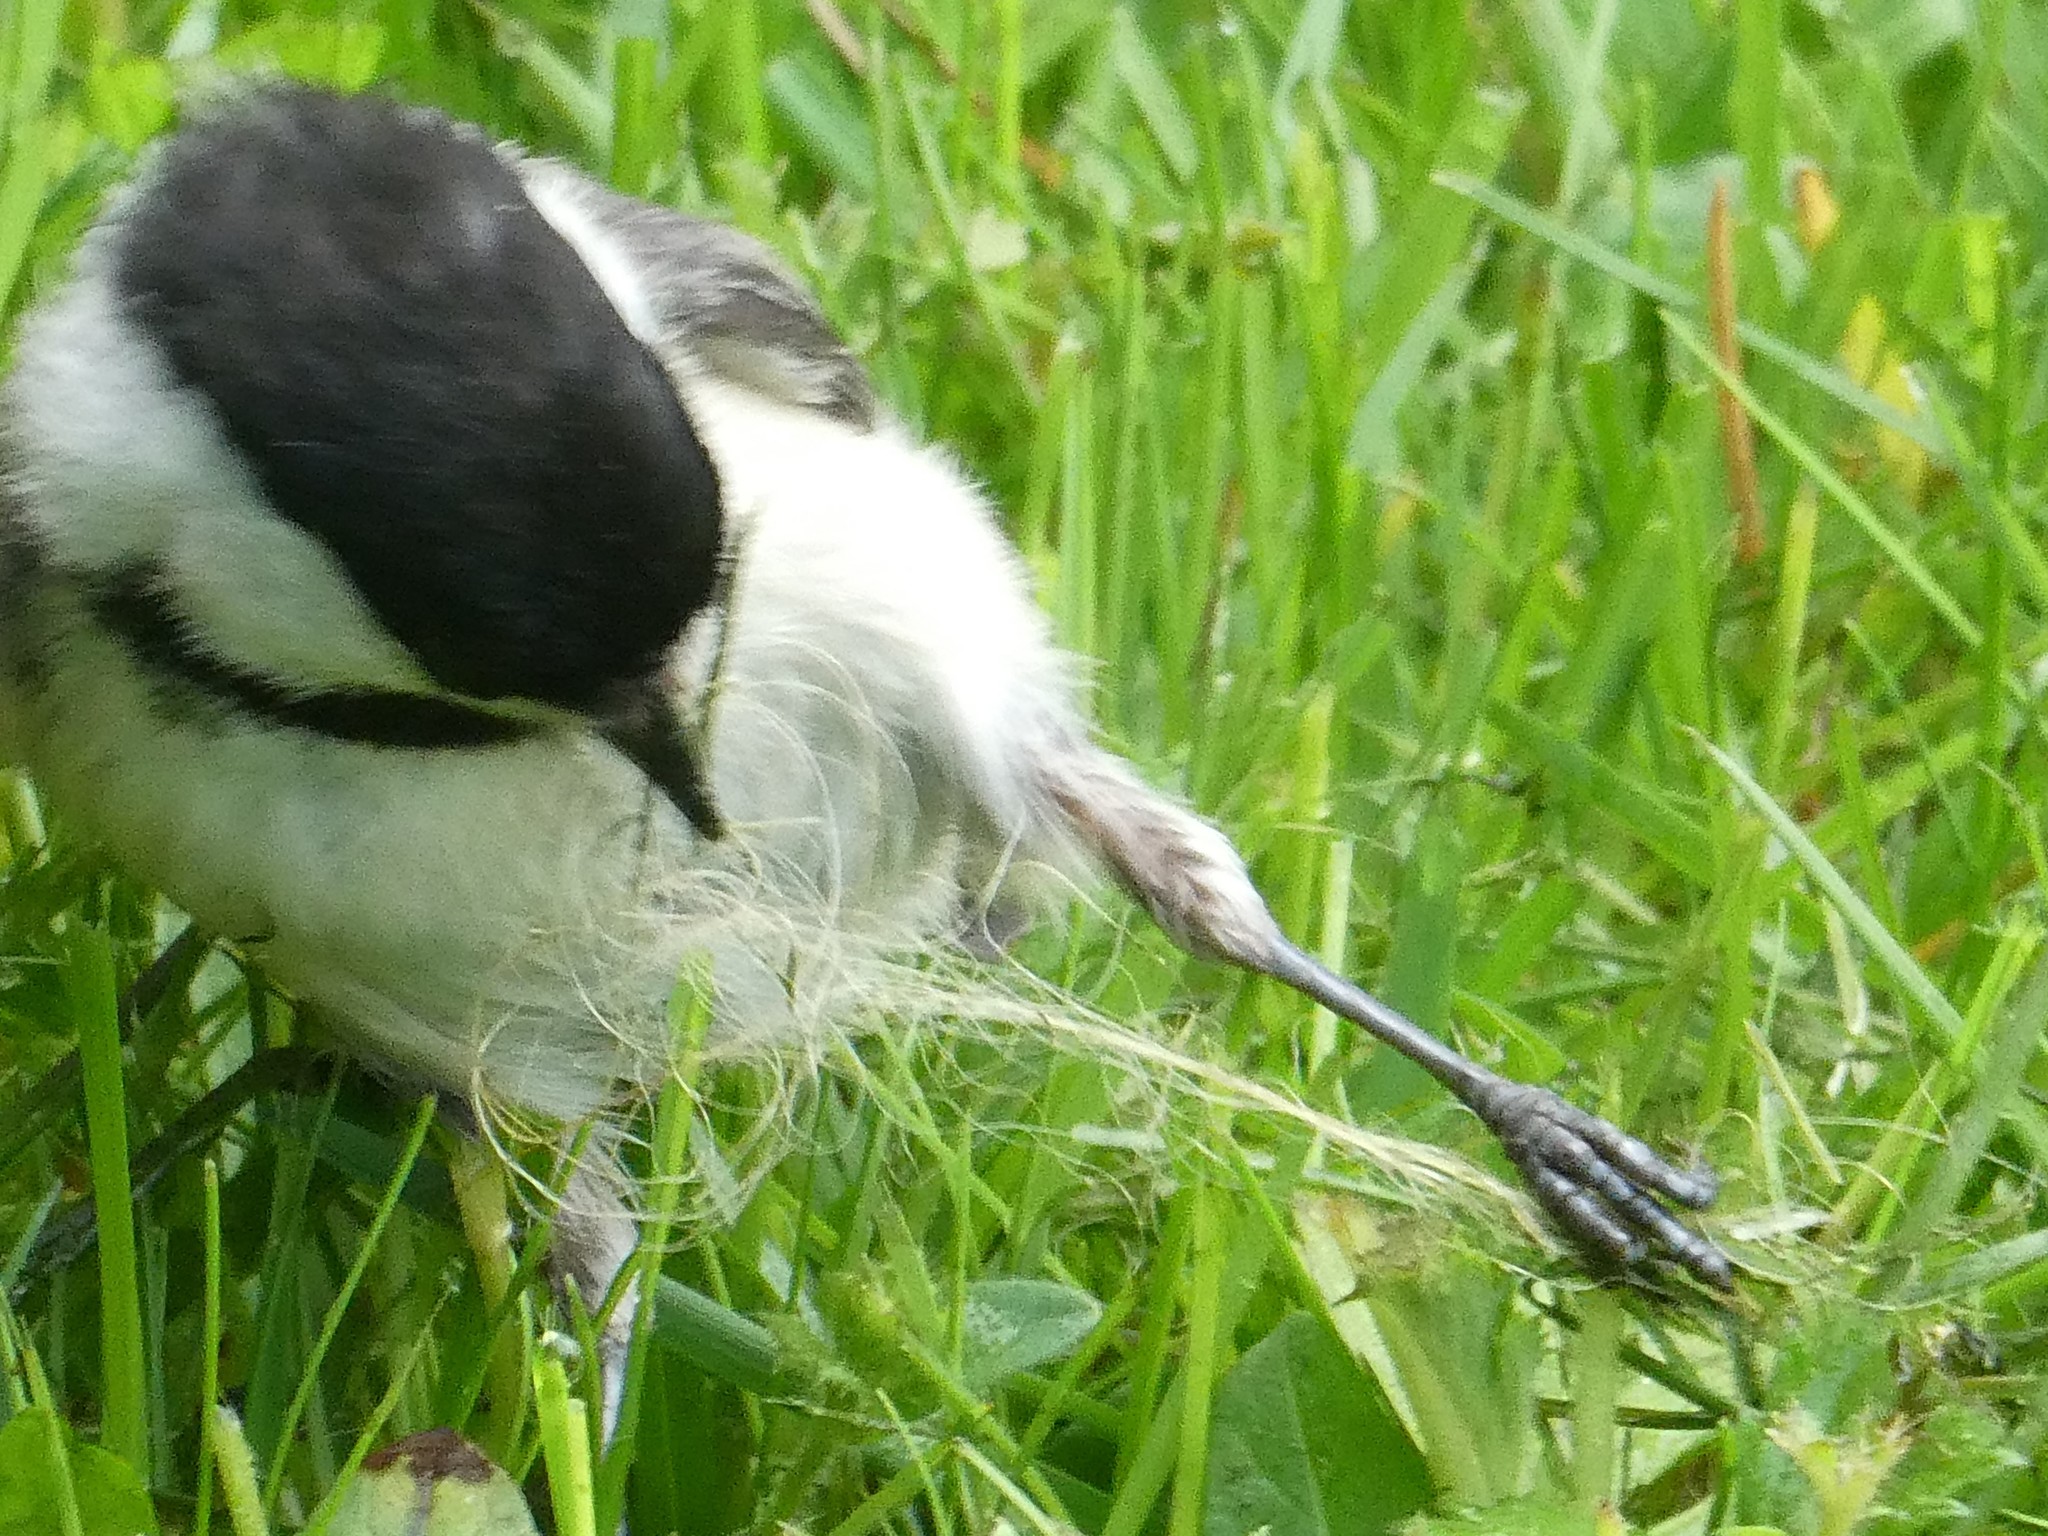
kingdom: Animalia
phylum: Chordata
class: Aves
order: Passeriformes
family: Paridae
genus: Poecile
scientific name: Poecile atricapillus
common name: Black-capped chickadee
